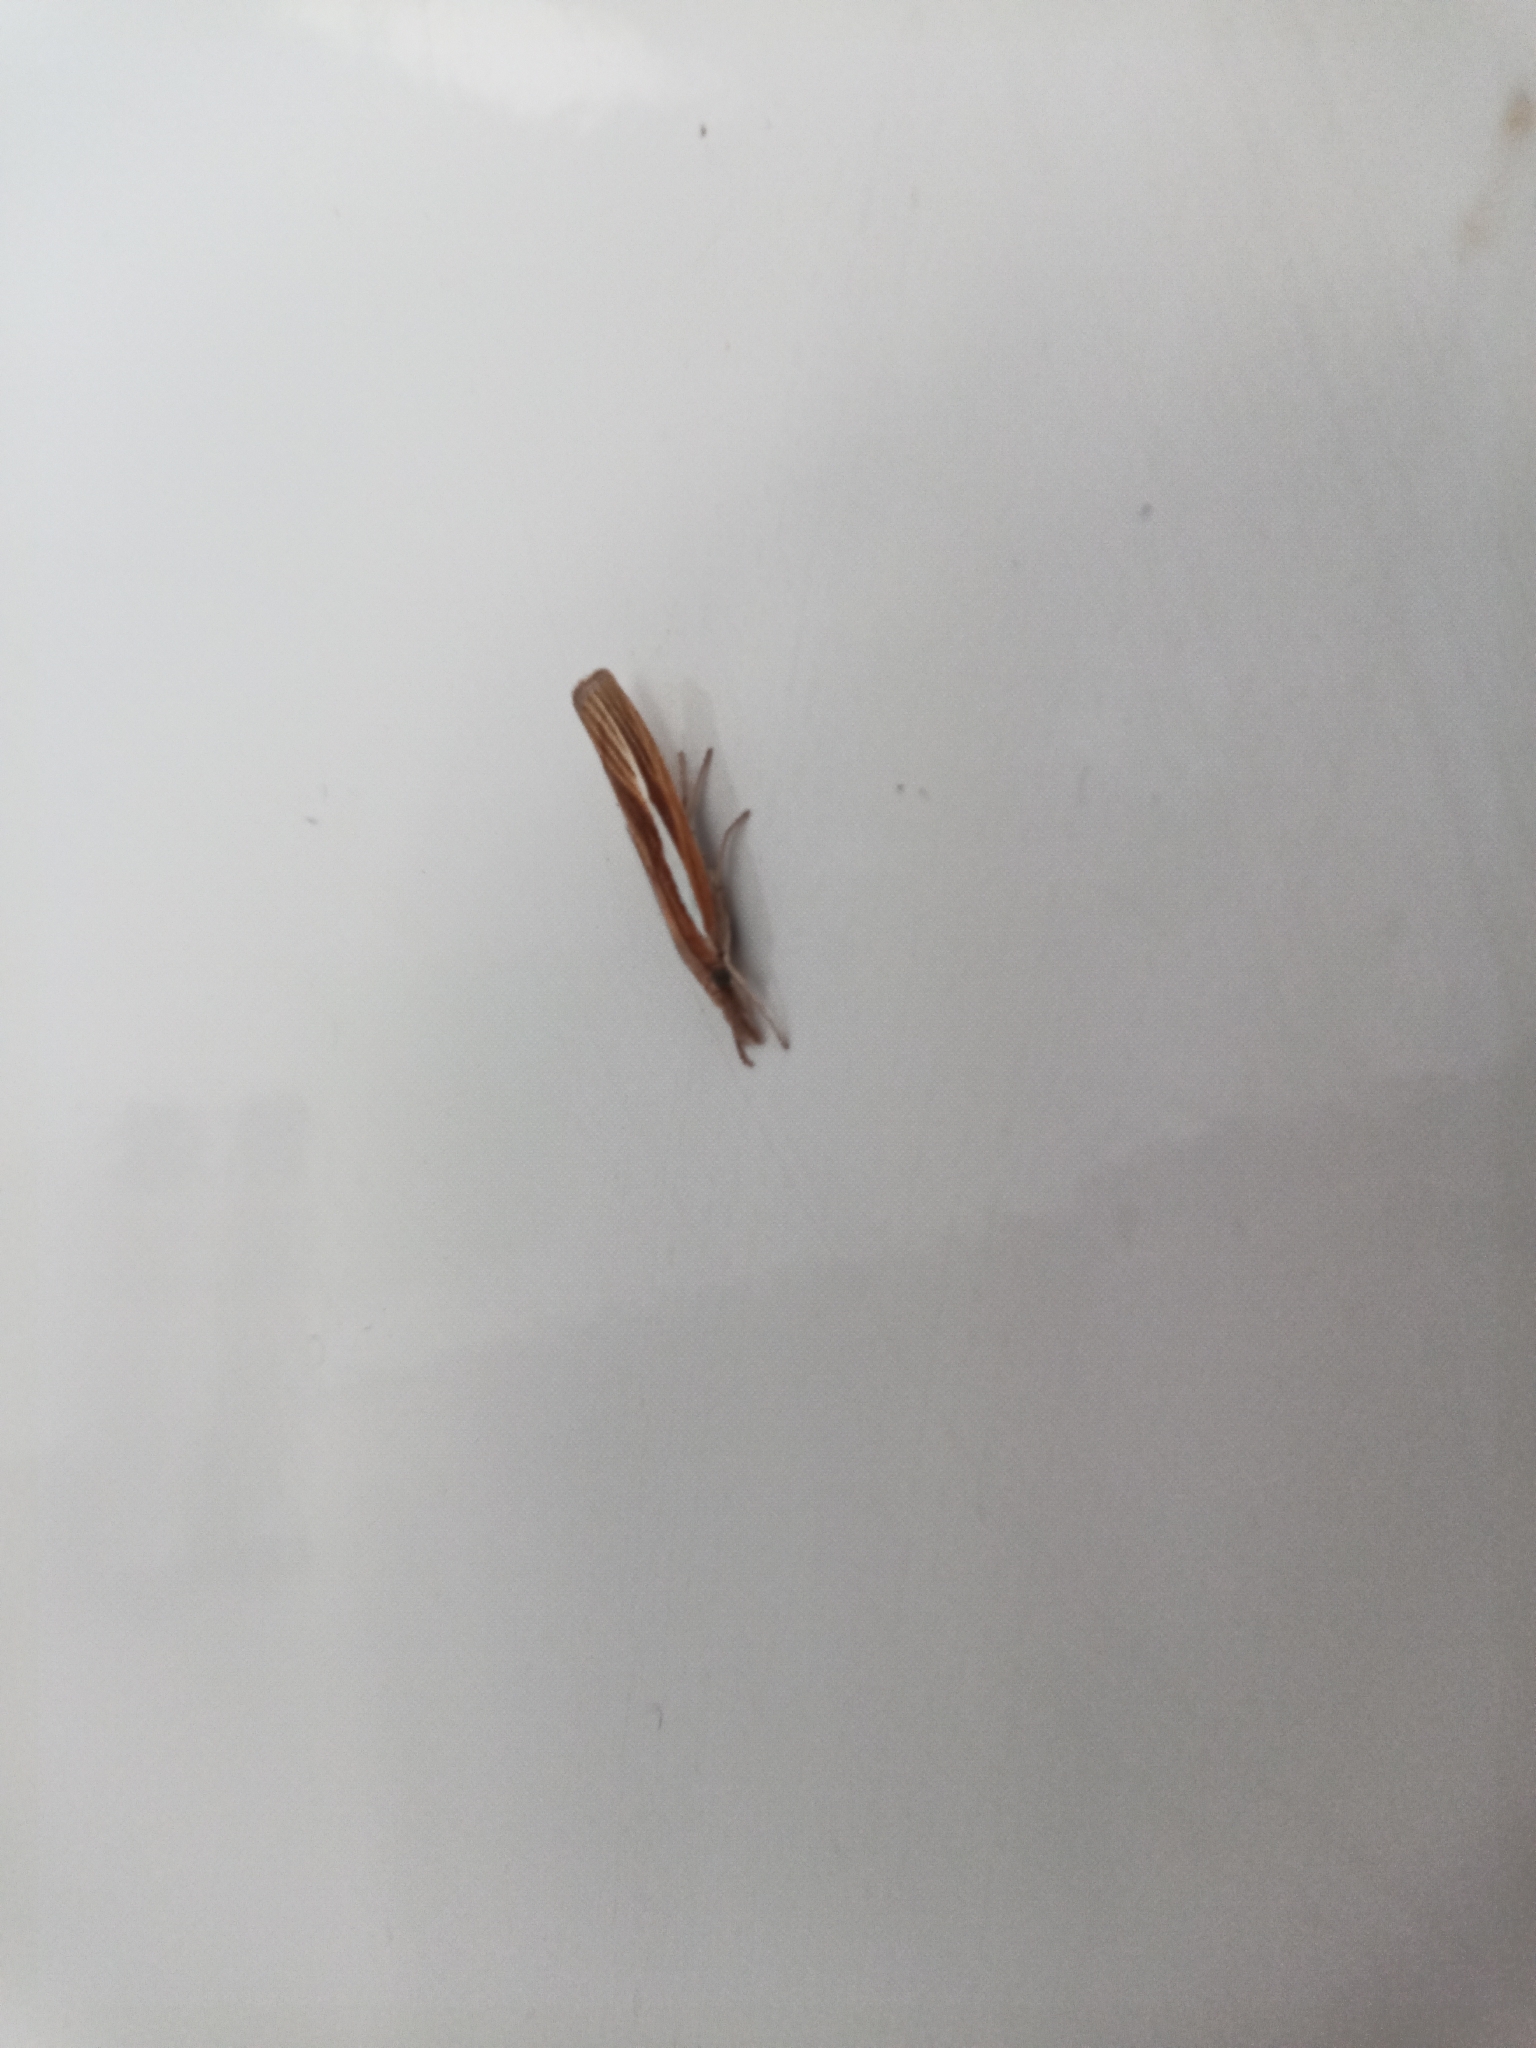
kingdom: Animalia
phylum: Arthropoda
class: Insecta
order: Lepidoptera
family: Crambidae
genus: Agriphila
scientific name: Agriphila tristellus
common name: Common grass-veneer
